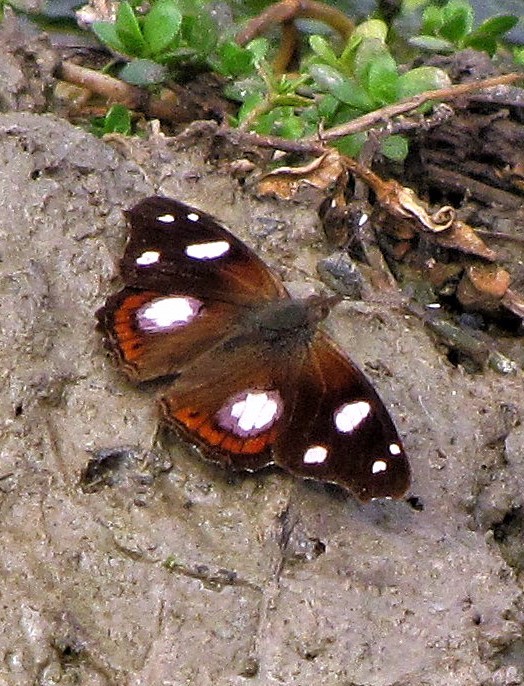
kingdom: Animalia
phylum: Arthropoda
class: Insecta
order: Lepidoptera
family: Nymphalidae
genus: Cybdelis
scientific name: Cybdelis
